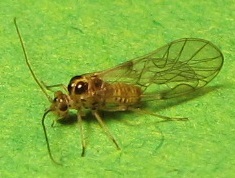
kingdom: Animalia
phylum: Arthropoda
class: Insecta
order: Psocodea
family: Dasydemellidae
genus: Teliapsocus
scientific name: Teliapsocus conterminus
